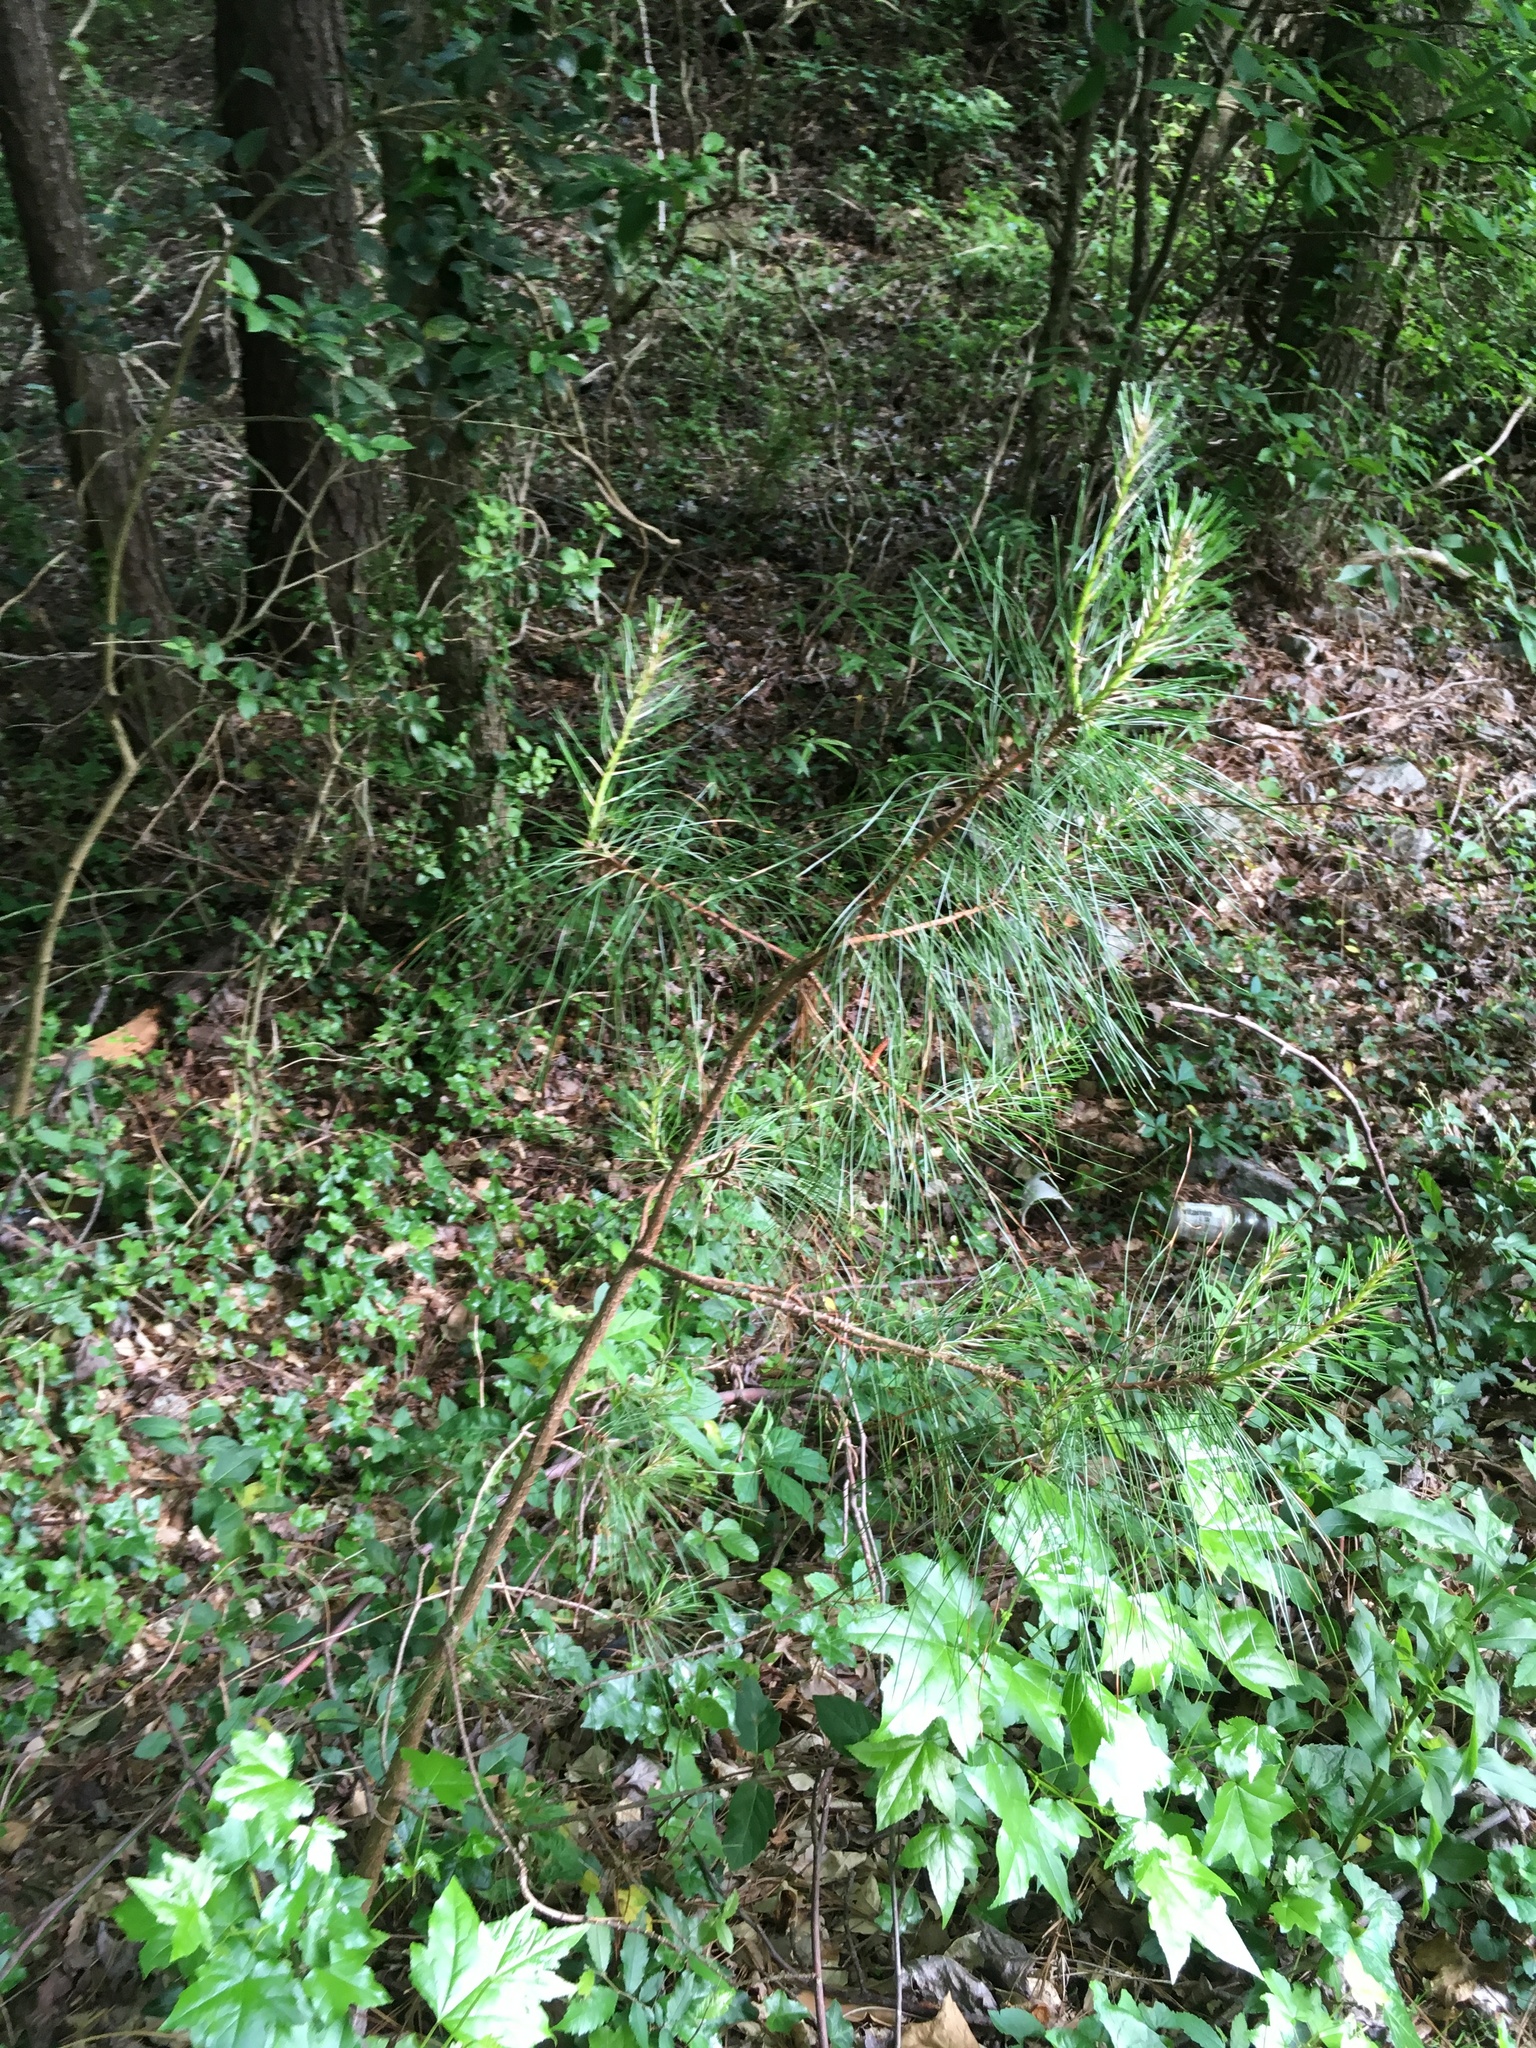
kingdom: Plantae
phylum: Tracheophyta
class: Pinopsida
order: Pinales
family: Pinaceae
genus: Pinus
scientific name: Pinus taeda
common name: Loblolly pine
